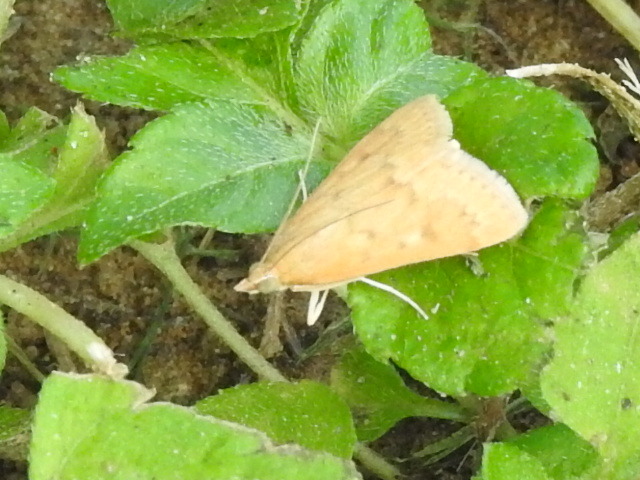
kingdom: Animalia
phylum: Arthropoda
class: Insecta
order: Lepidoptera
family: Crambidae
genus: Achyra
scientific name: Achyra rantalis
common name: Garden webworm
